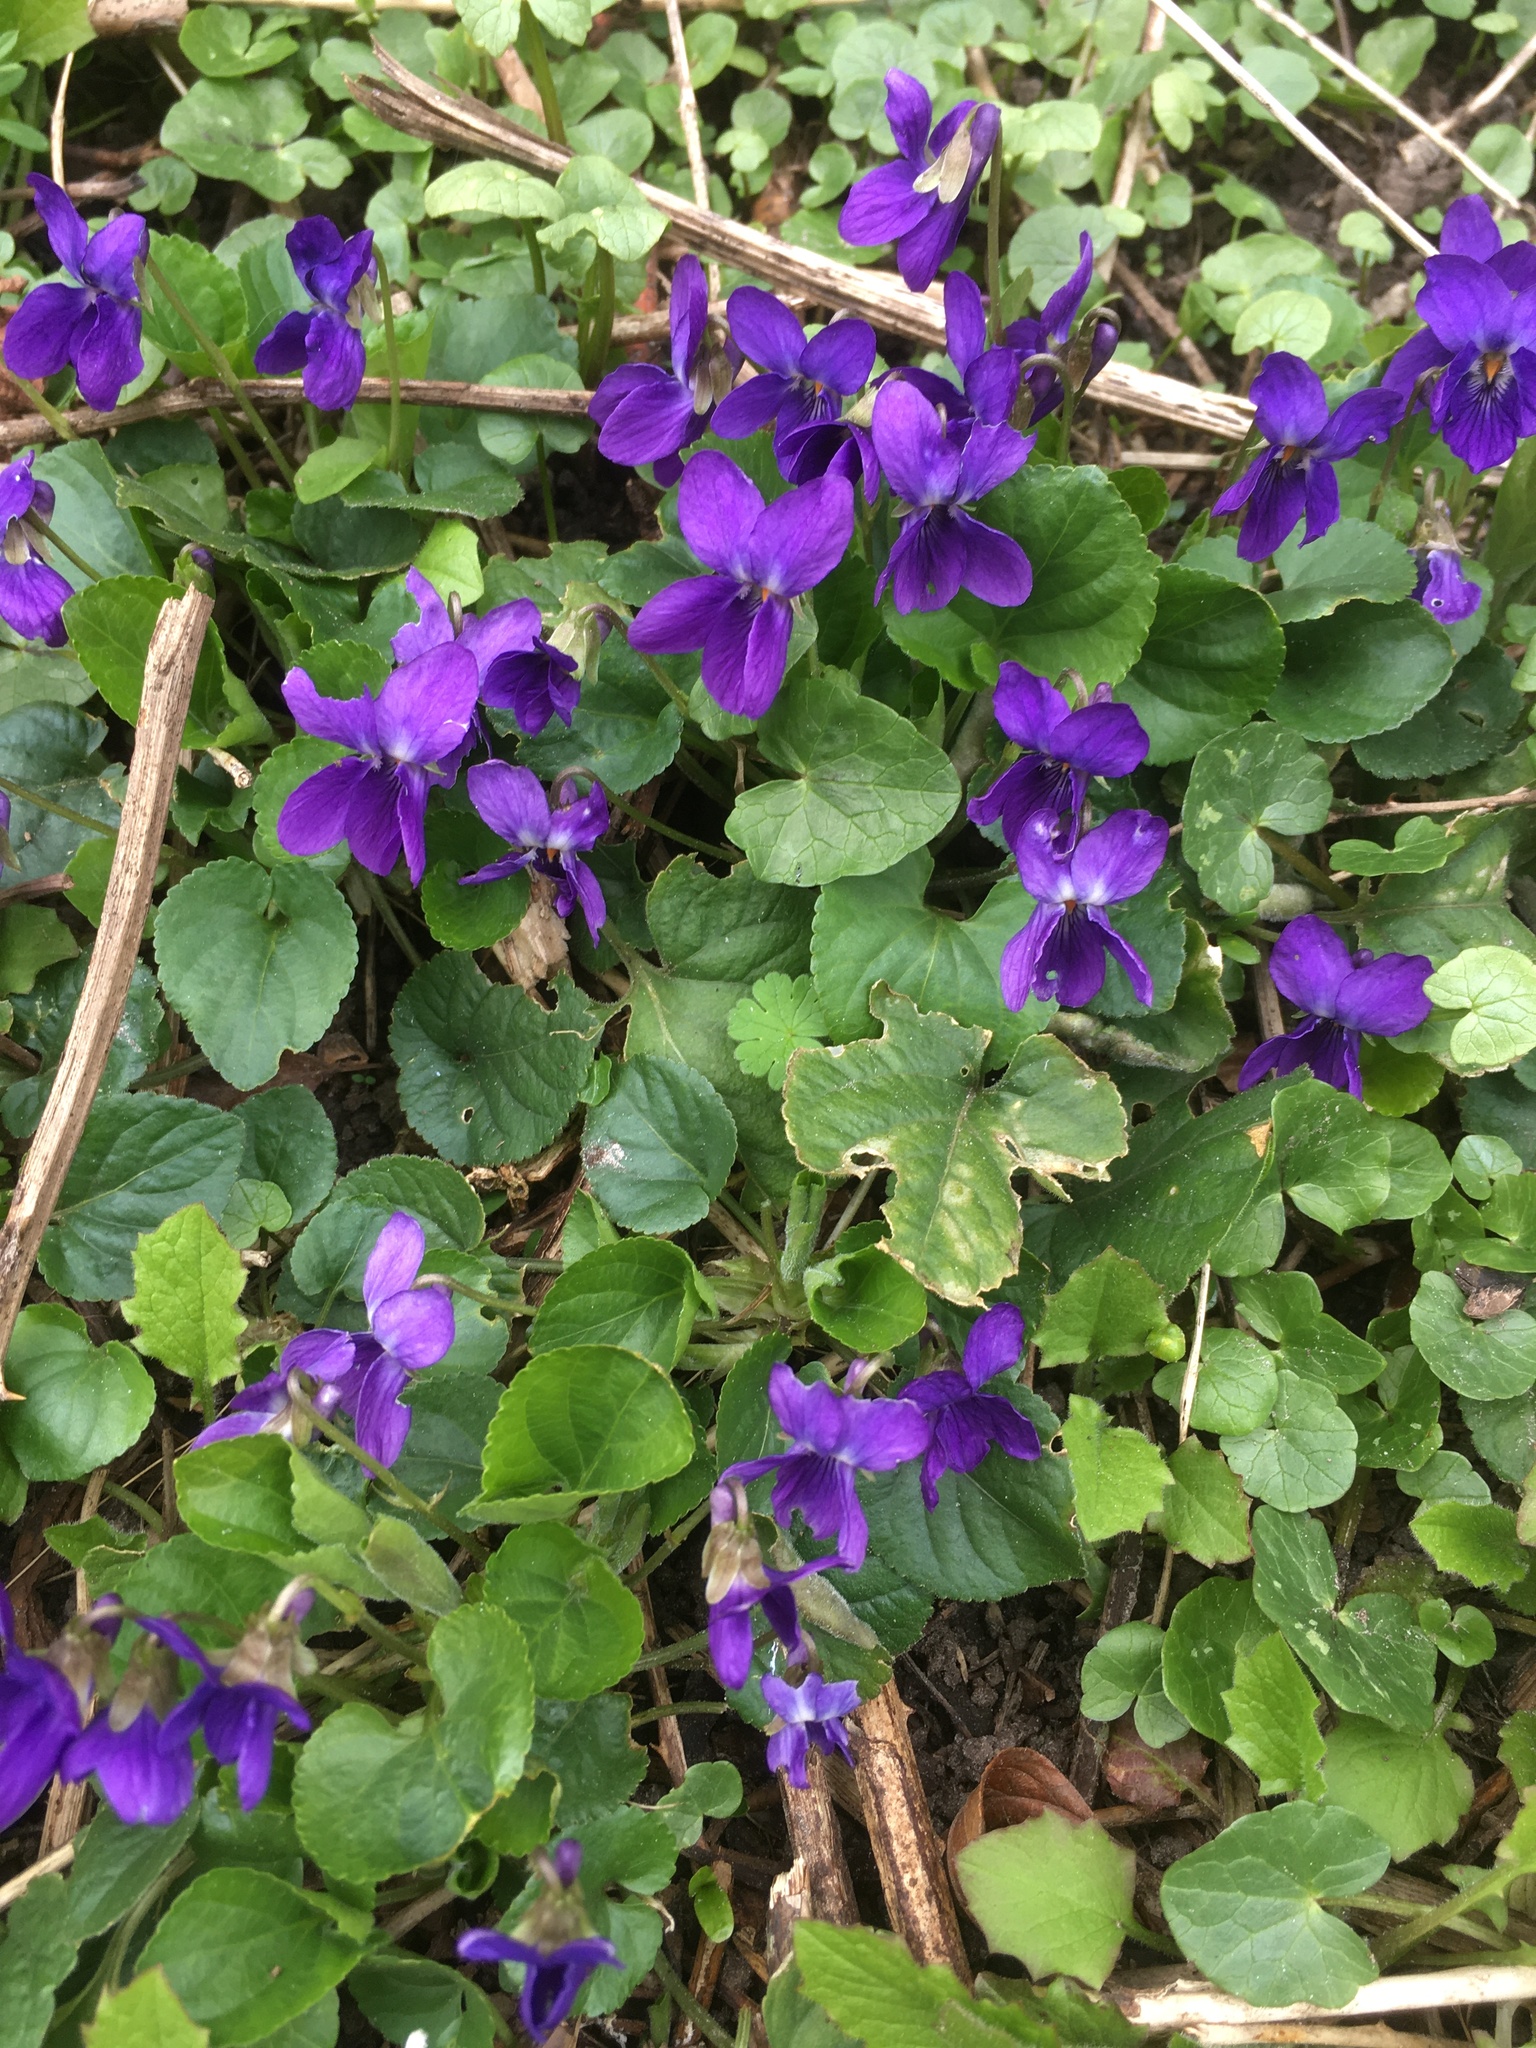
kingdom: Plantae
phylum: Tracheophyta
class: Magnoliopsida
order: Malpighiales
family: Violaceae
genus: Viola
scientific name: Viola odorata
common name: Sweet violet
